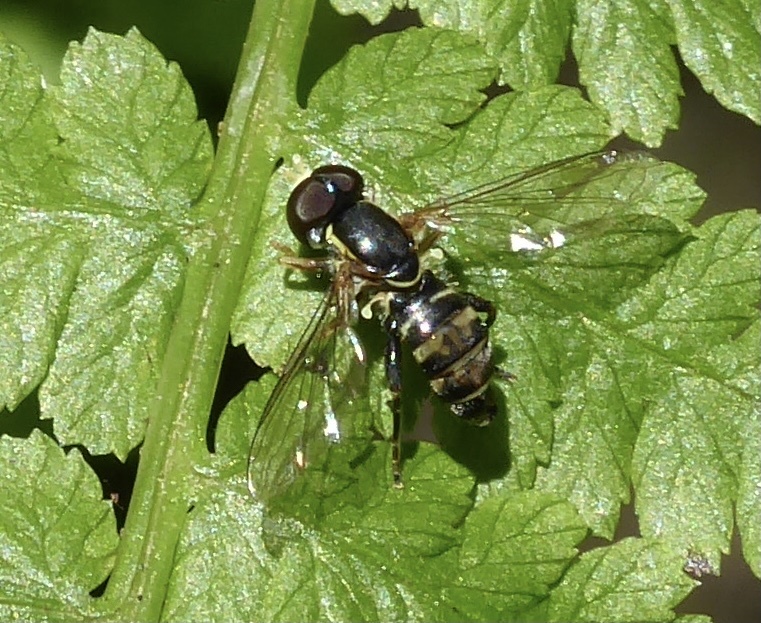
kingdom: Animalia
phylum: Arthropoda
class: Insecta
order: Diptera
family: Syrphidae
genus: Toxomerus
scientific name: Toxomerus occidentalis
